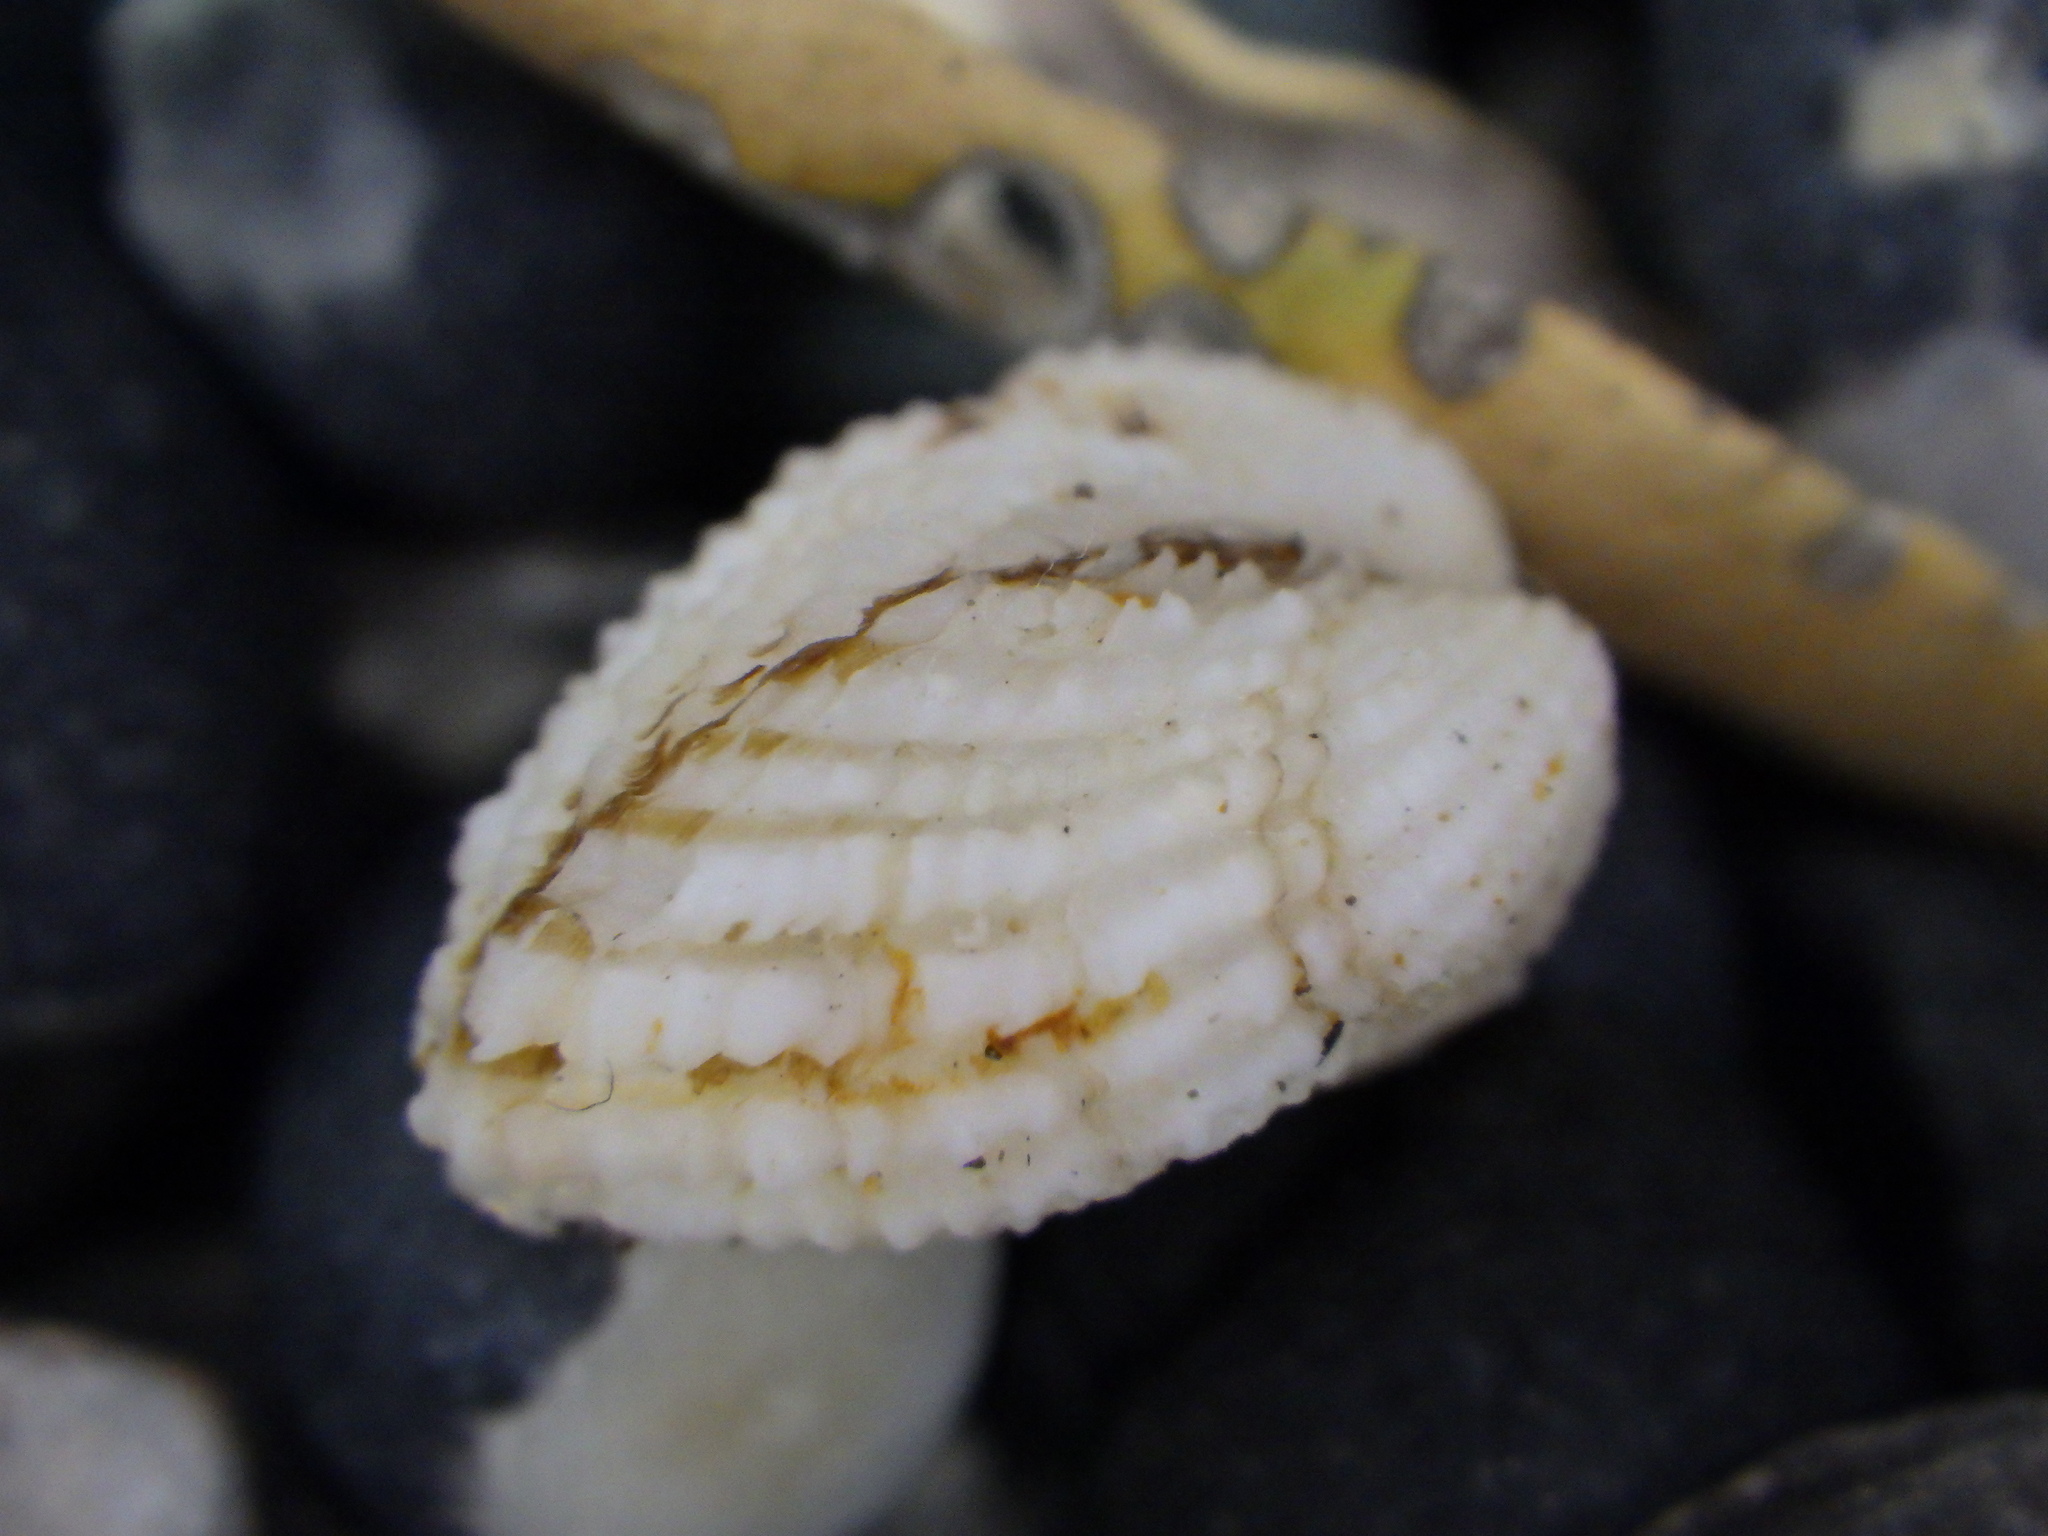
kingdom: Animalia
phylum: Mollusca
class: Bivalvia
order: Carditida
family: Carditidae
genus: Powellina
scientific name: Powellina brookesi
